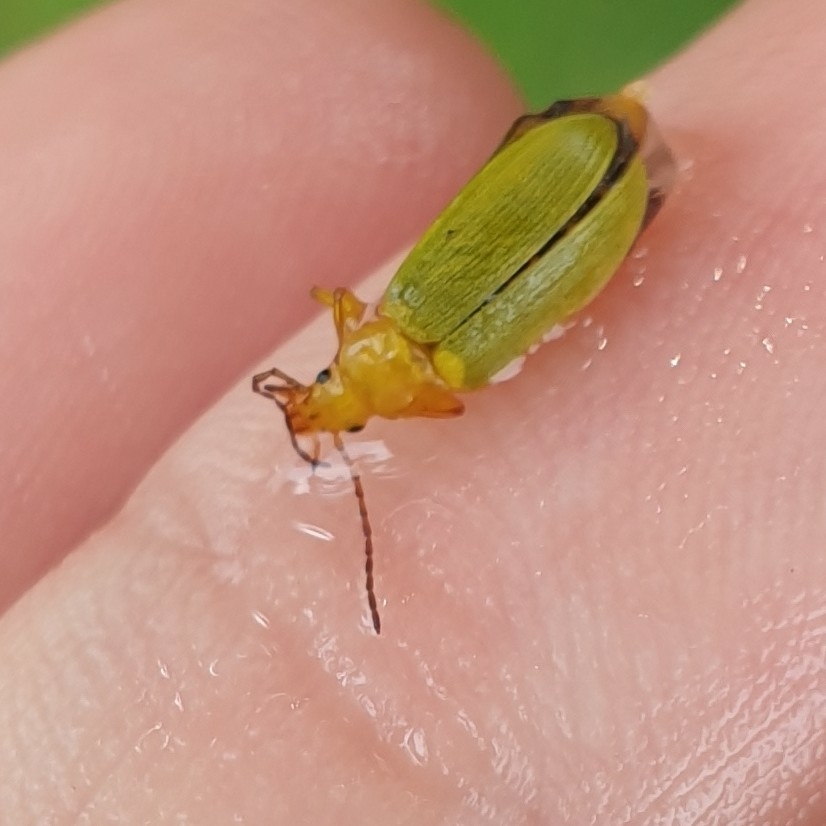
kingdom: Animalia
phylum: Arthropoda
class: Insecta
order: Coleoptera
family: Tenebrionidae
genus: Cteniopus
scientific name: Cteniopus sulphureus
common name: Sulphur beetle
